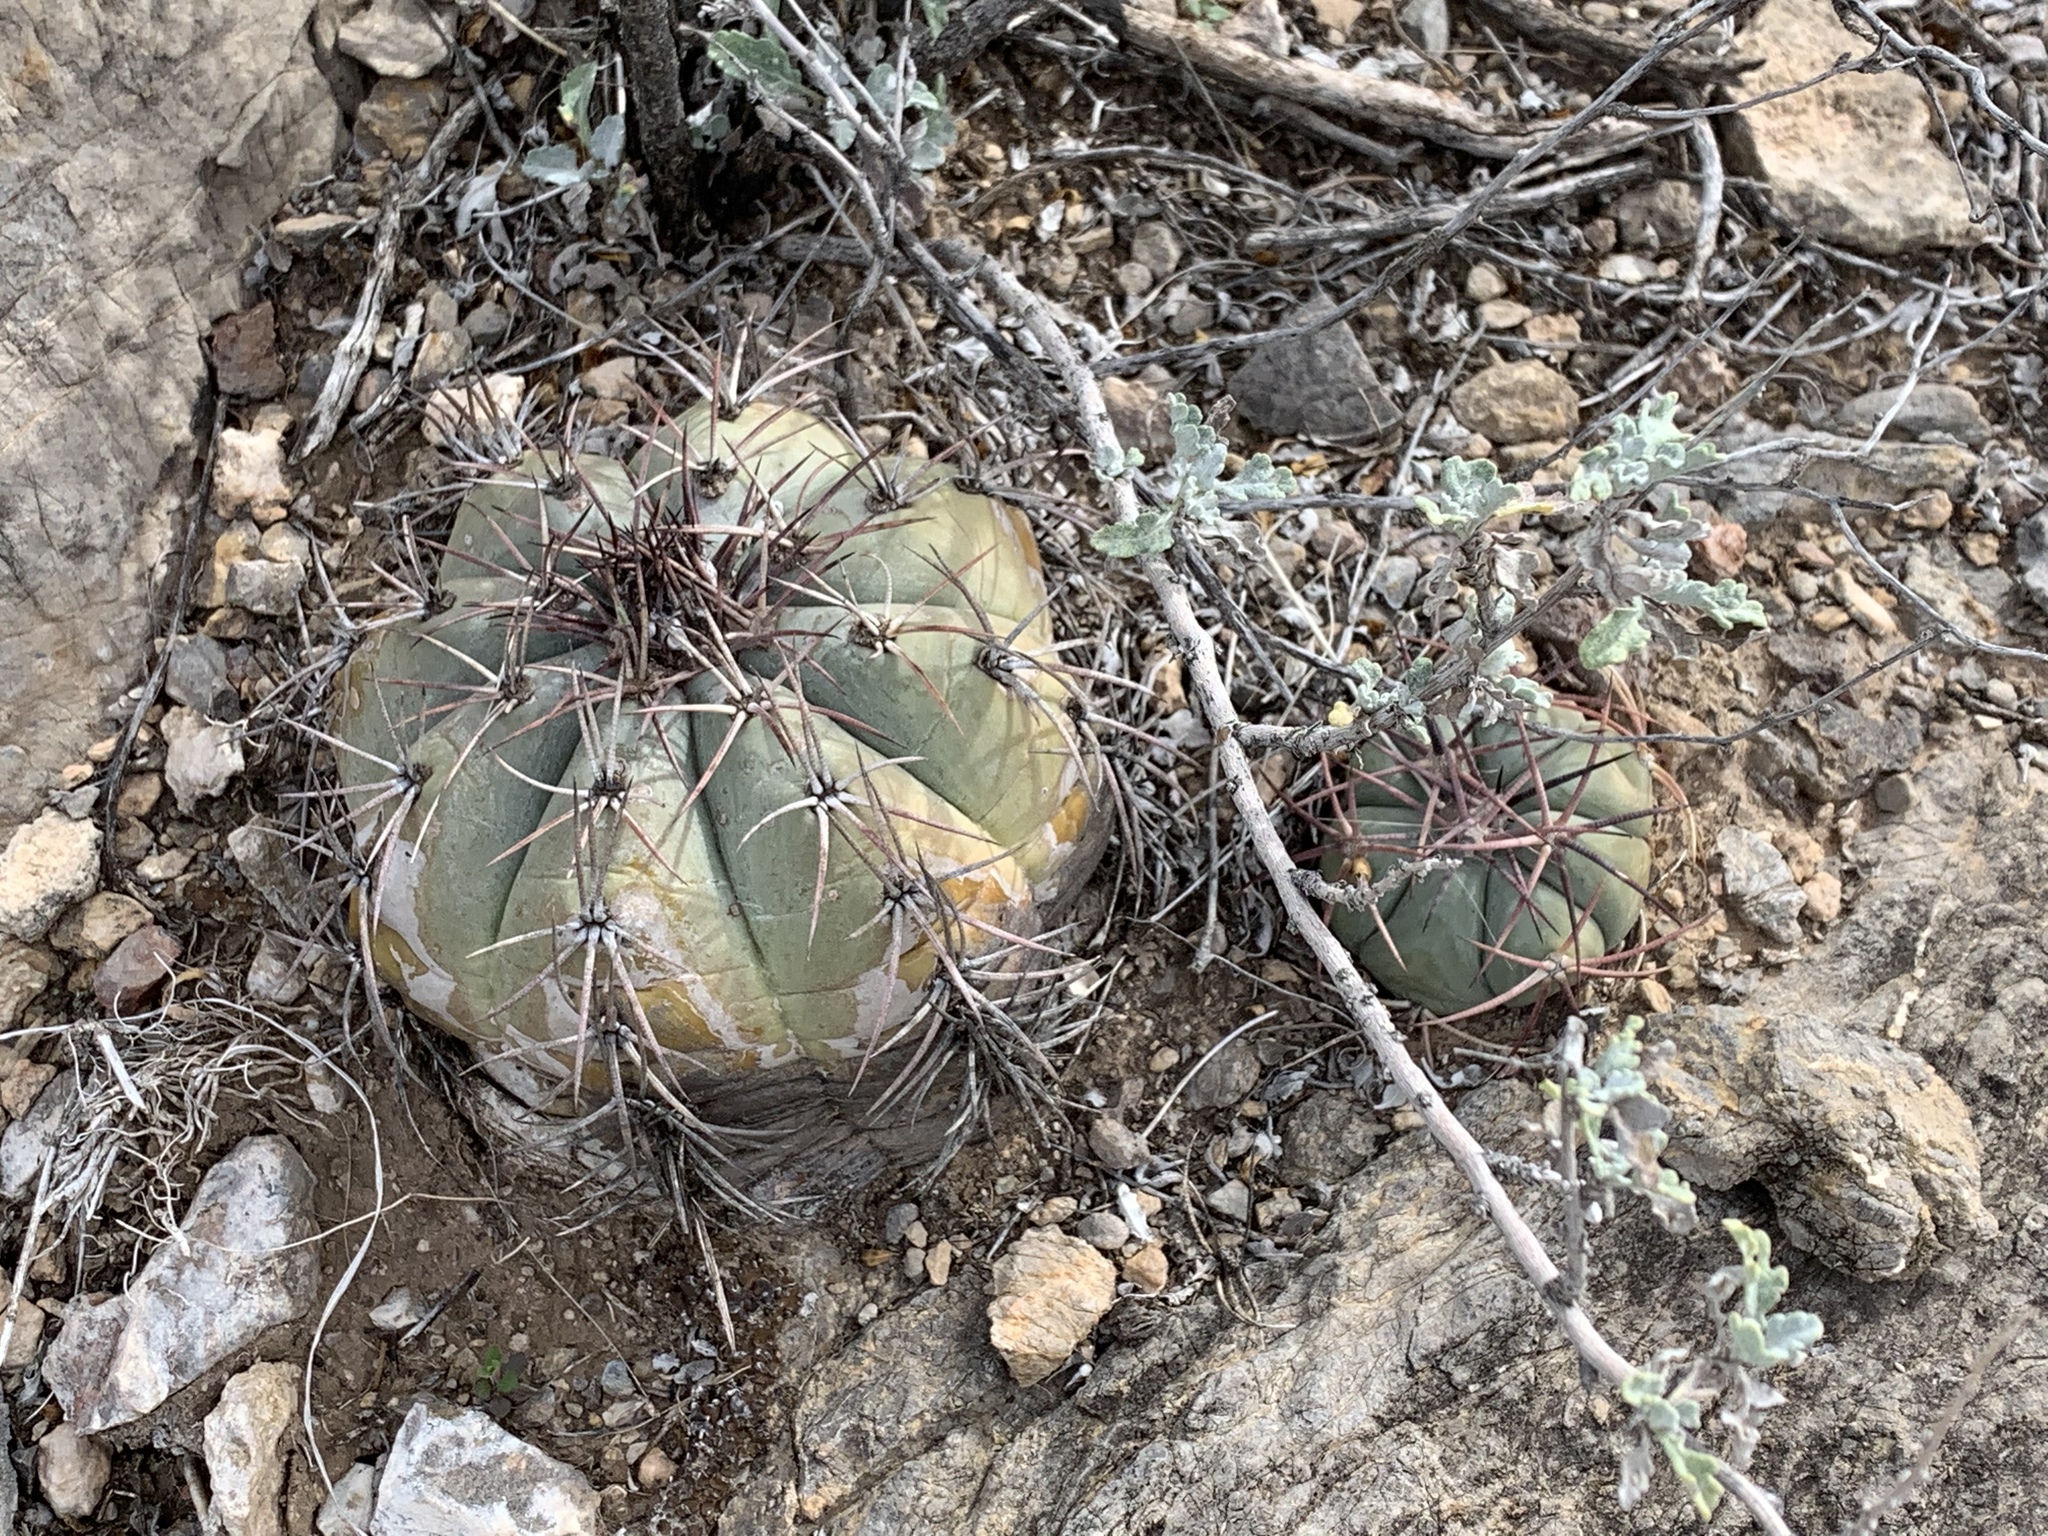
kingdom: Plantae
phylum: Tracheophyta
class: Magnoliopsida
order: Caryophyllales
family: Cactaceae
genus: Echinocactus
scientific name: Echinocactus horizonthalonius
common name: Devilshead
